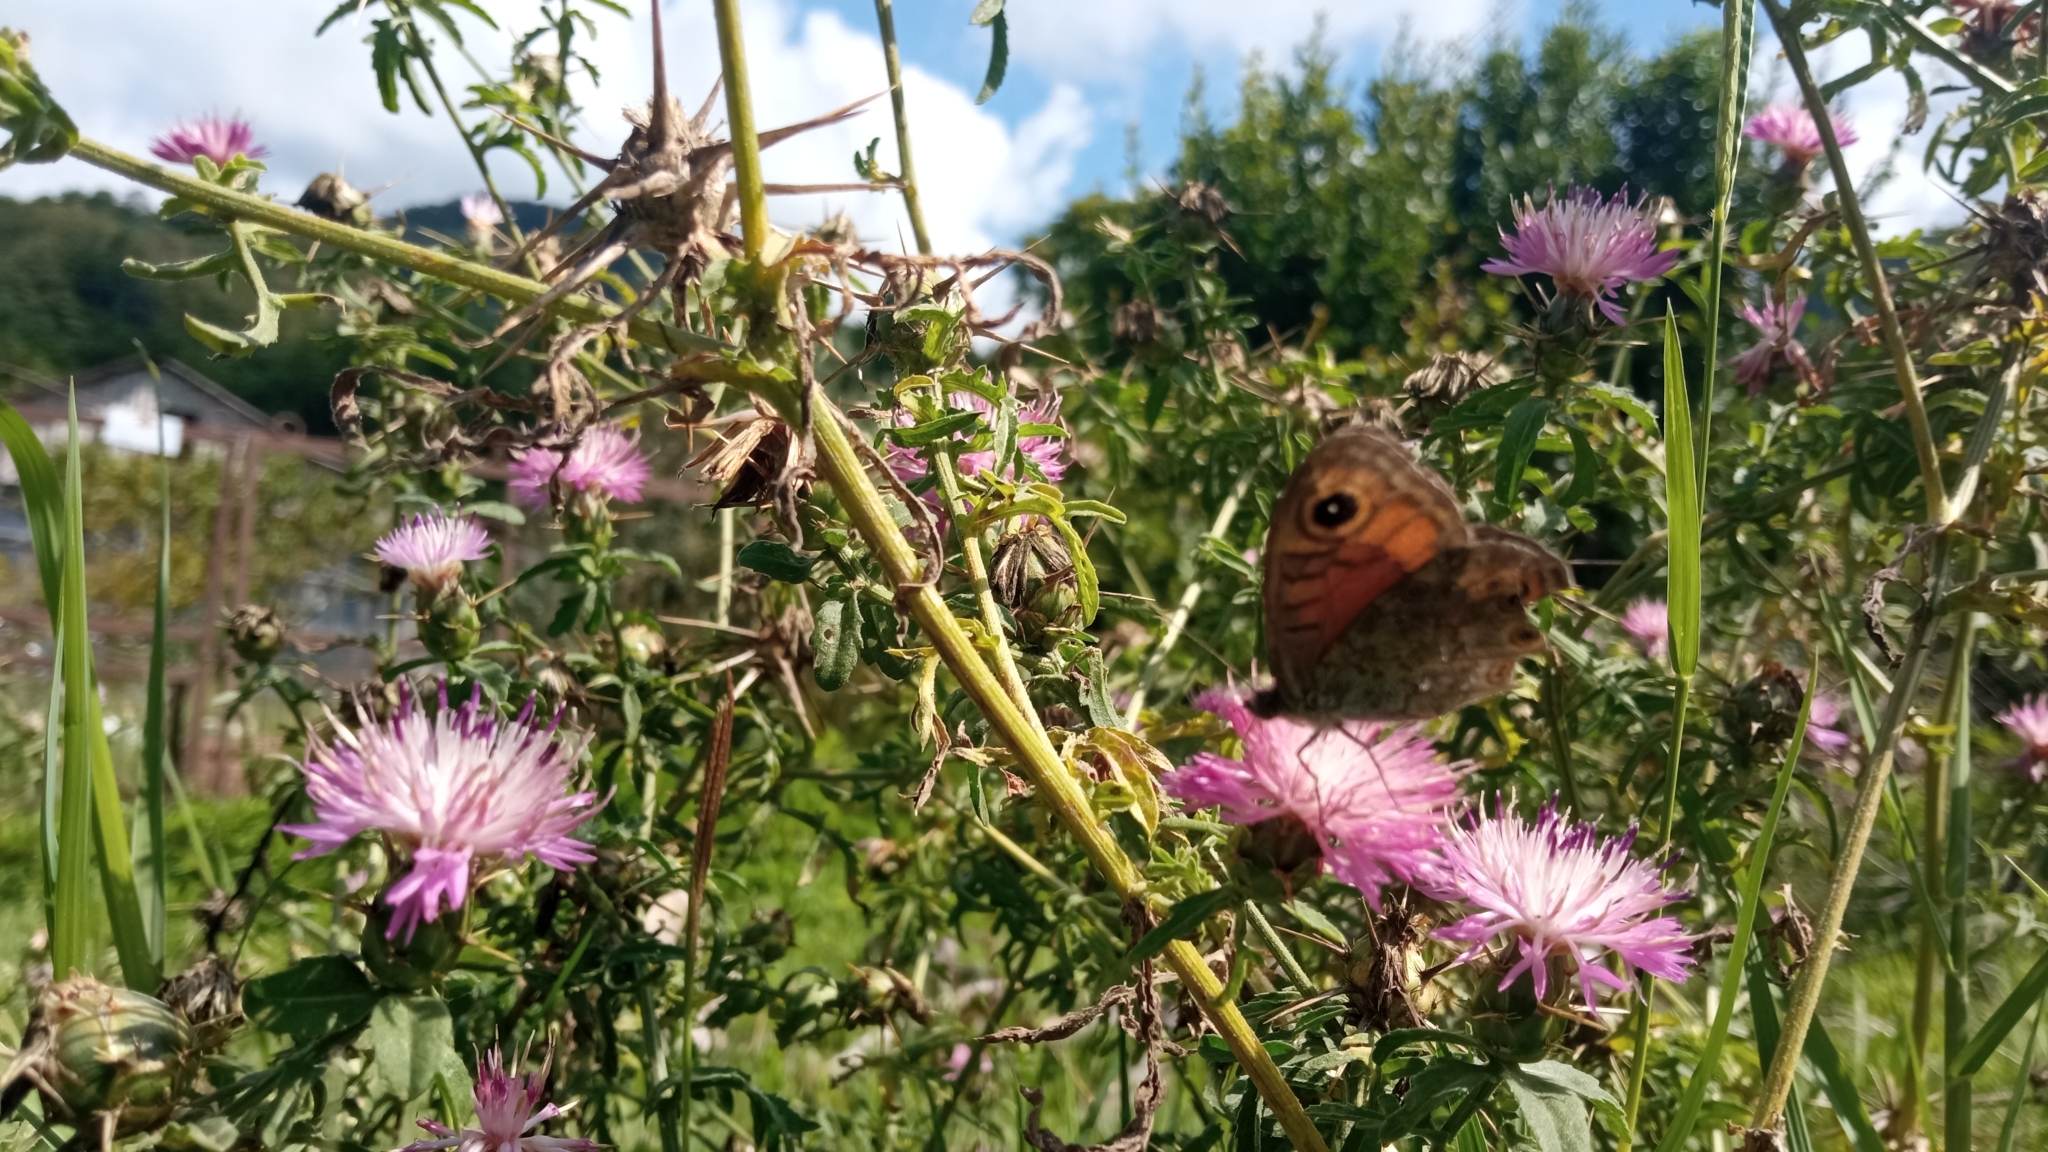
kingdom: Animalia
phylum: Arthropoda
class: Insecta
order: Lepidoptera
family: Nymphalidae
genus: Pararge
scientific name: Pararge Lasiommata maera
